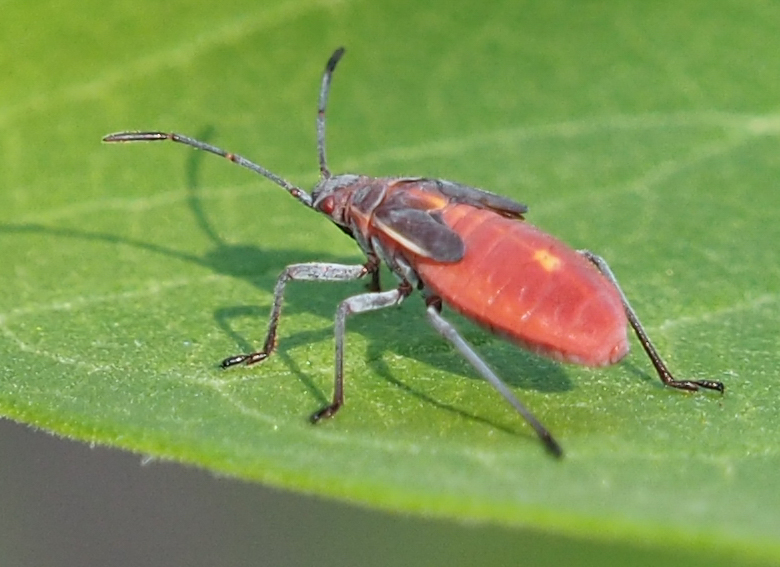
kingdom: Animalia
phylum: Arthropoda
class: Insecta
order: Hemiptera
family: Rhopalidae
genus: Boisea
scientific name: Boisea trivittata
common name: Boxelder bug
